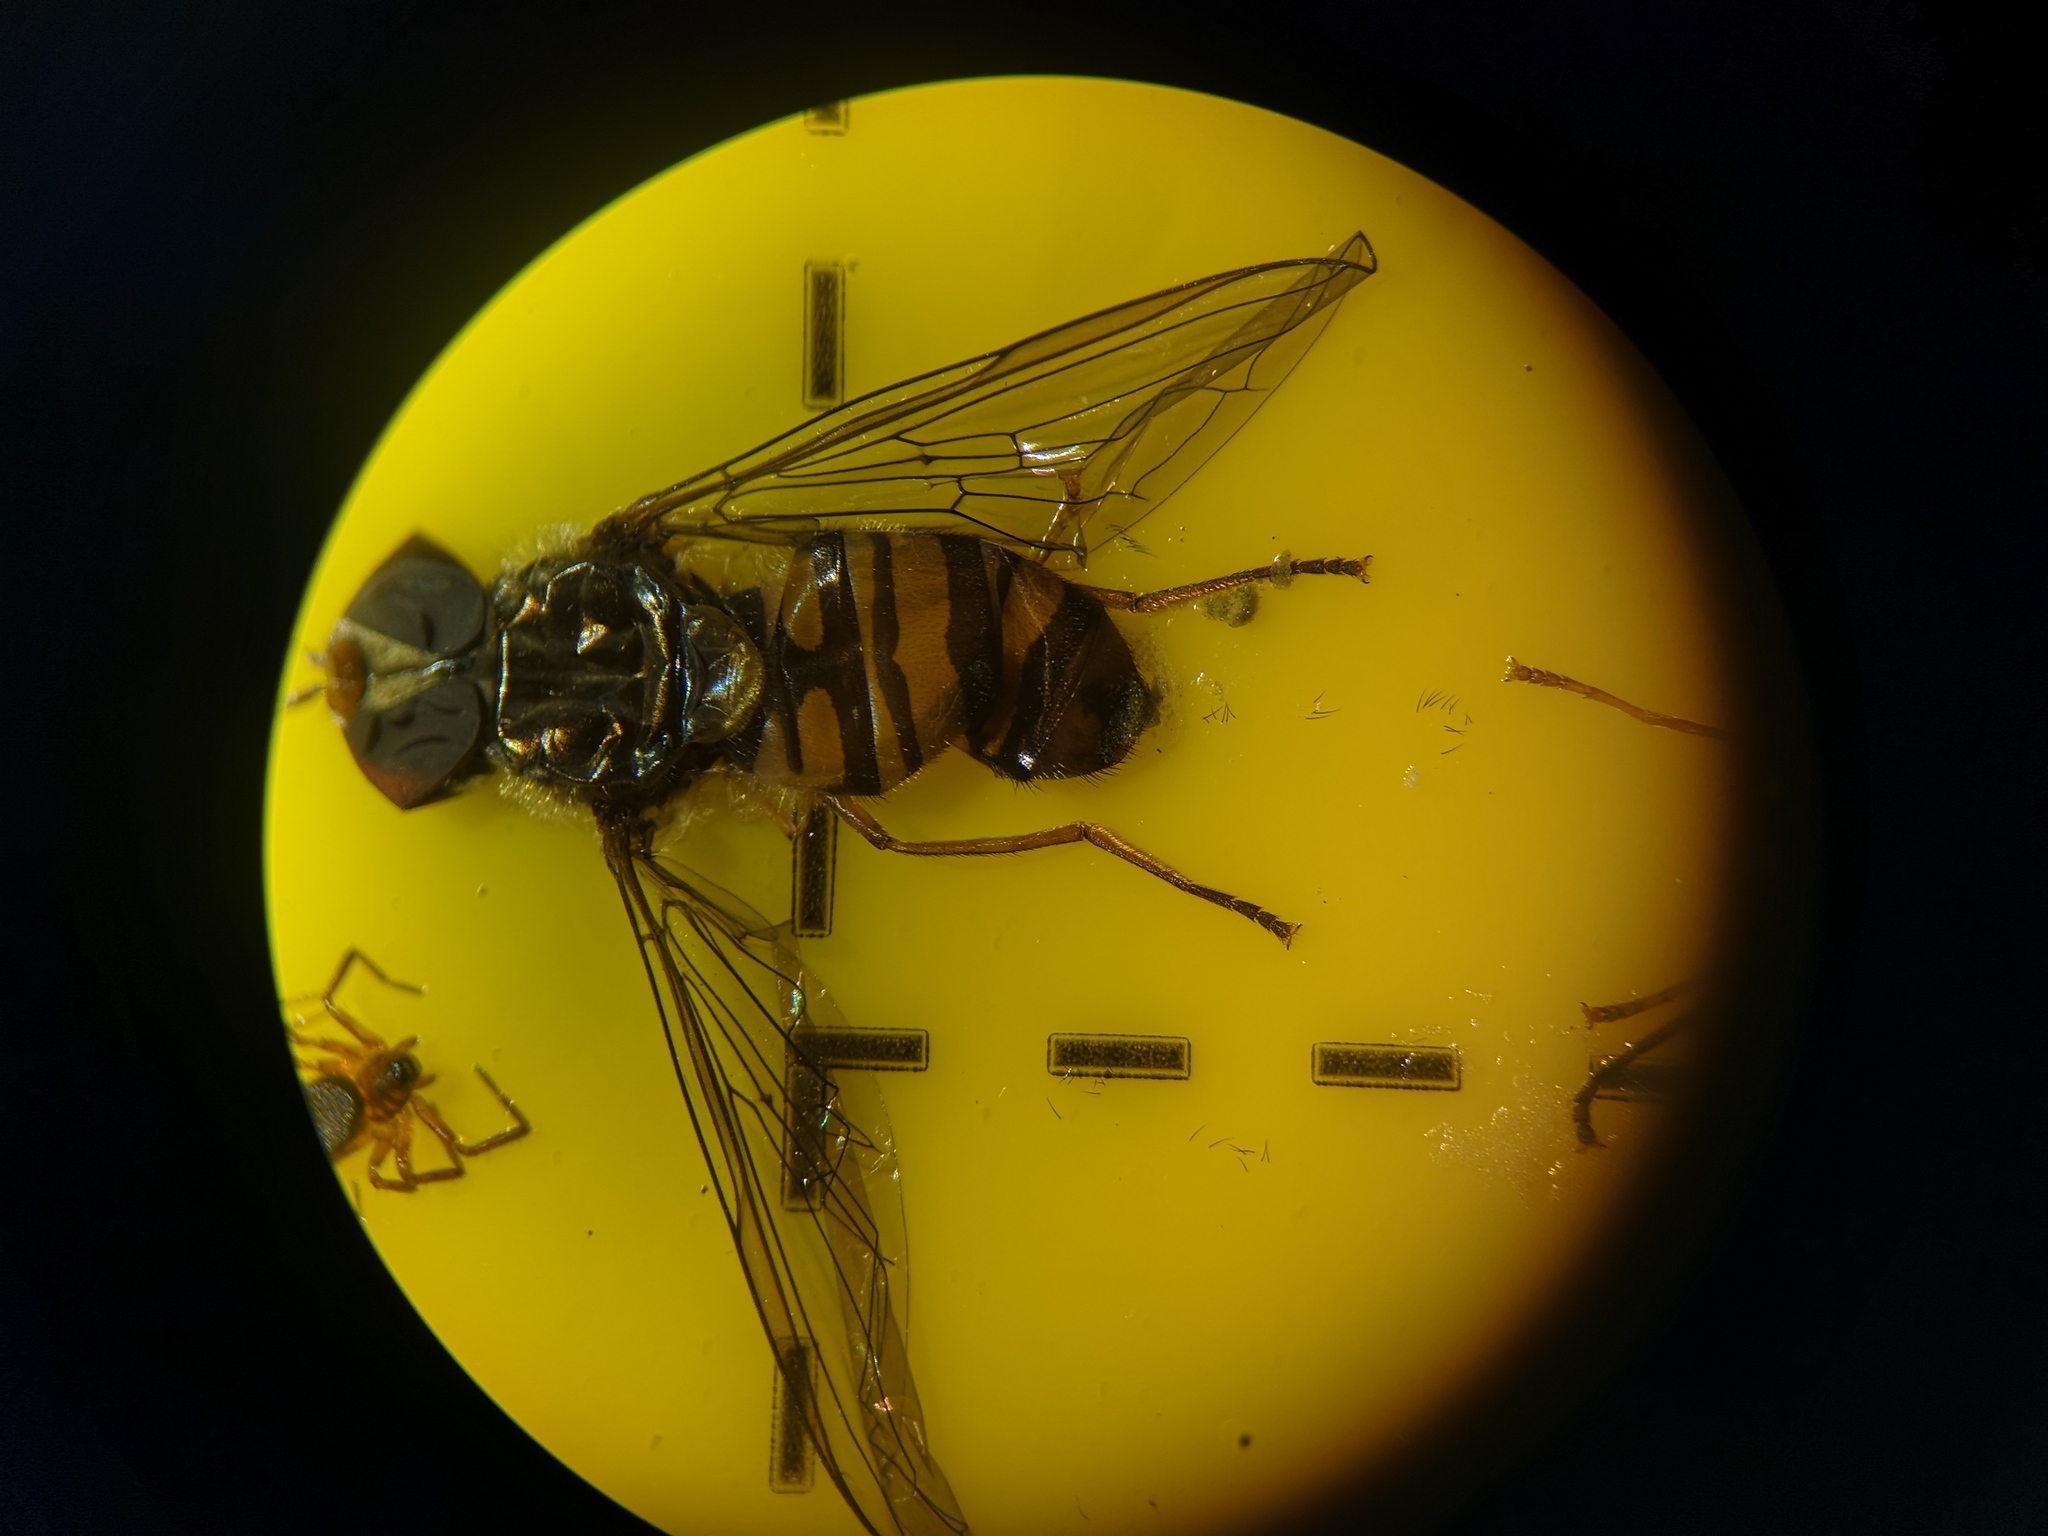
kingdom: Animalia
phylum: Arthropoda
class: Insecta
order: Diptera
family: Syrphidae
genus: Episyrphus
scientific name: Episyrphus balteatus
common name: Marmalade hoverfly
